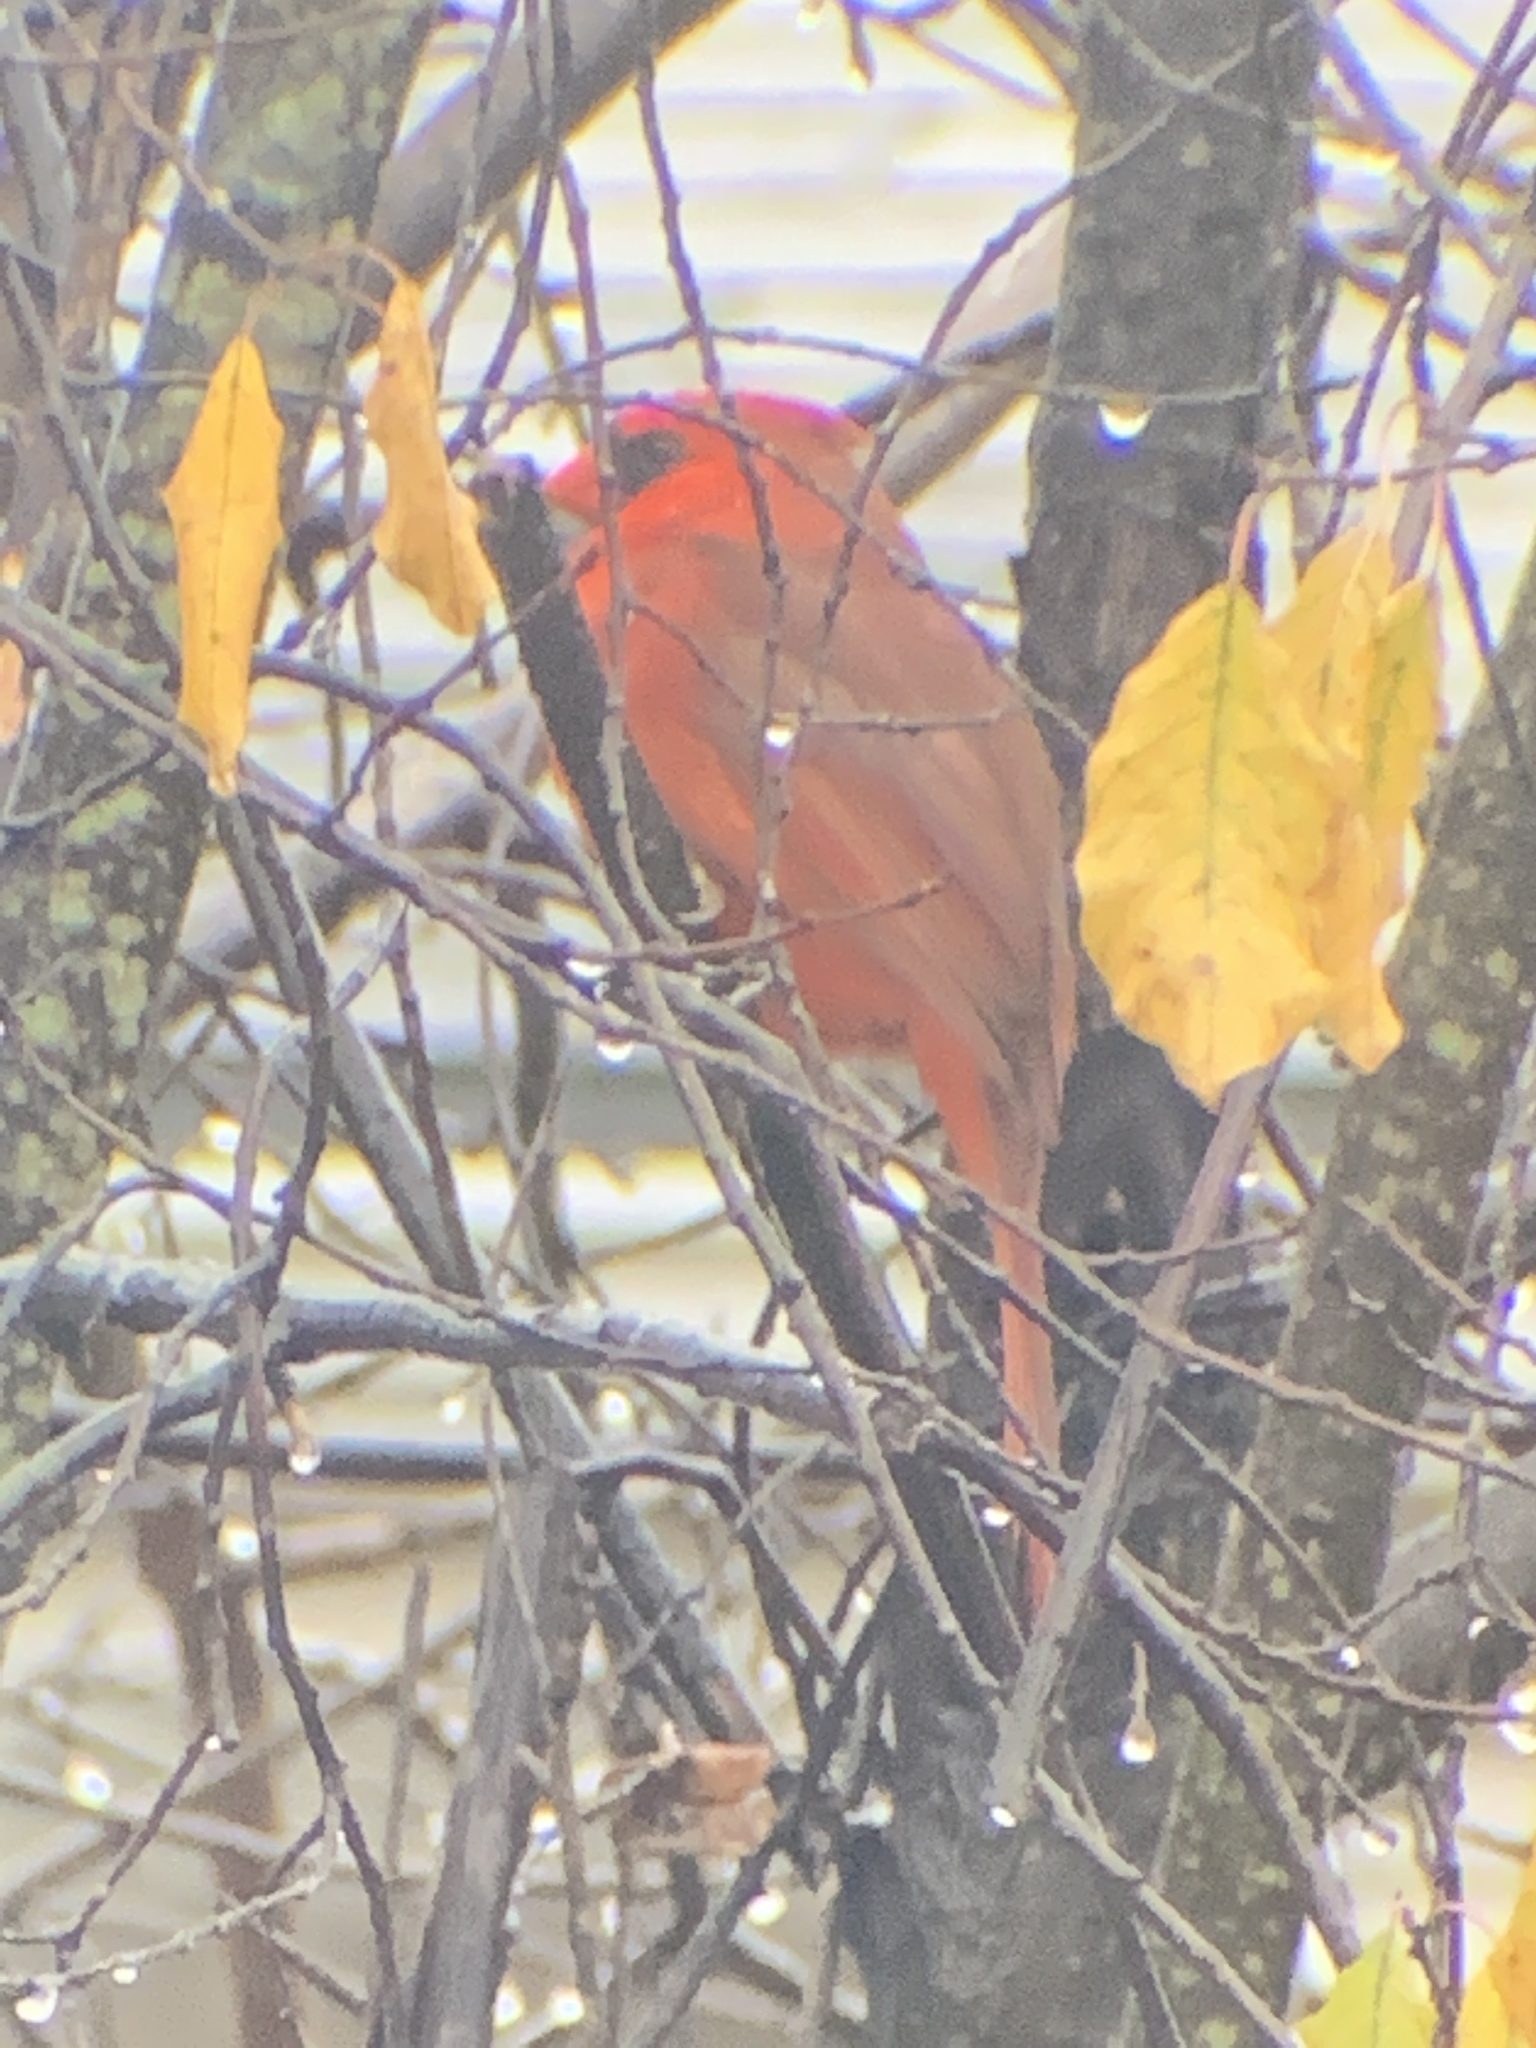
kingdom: Animalia
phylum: Chordata
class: Aves
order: Passeriformes
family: Cardinalidae
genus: Cardinalis
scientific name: Cardinalis cardinalis
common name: Northern cardinal
